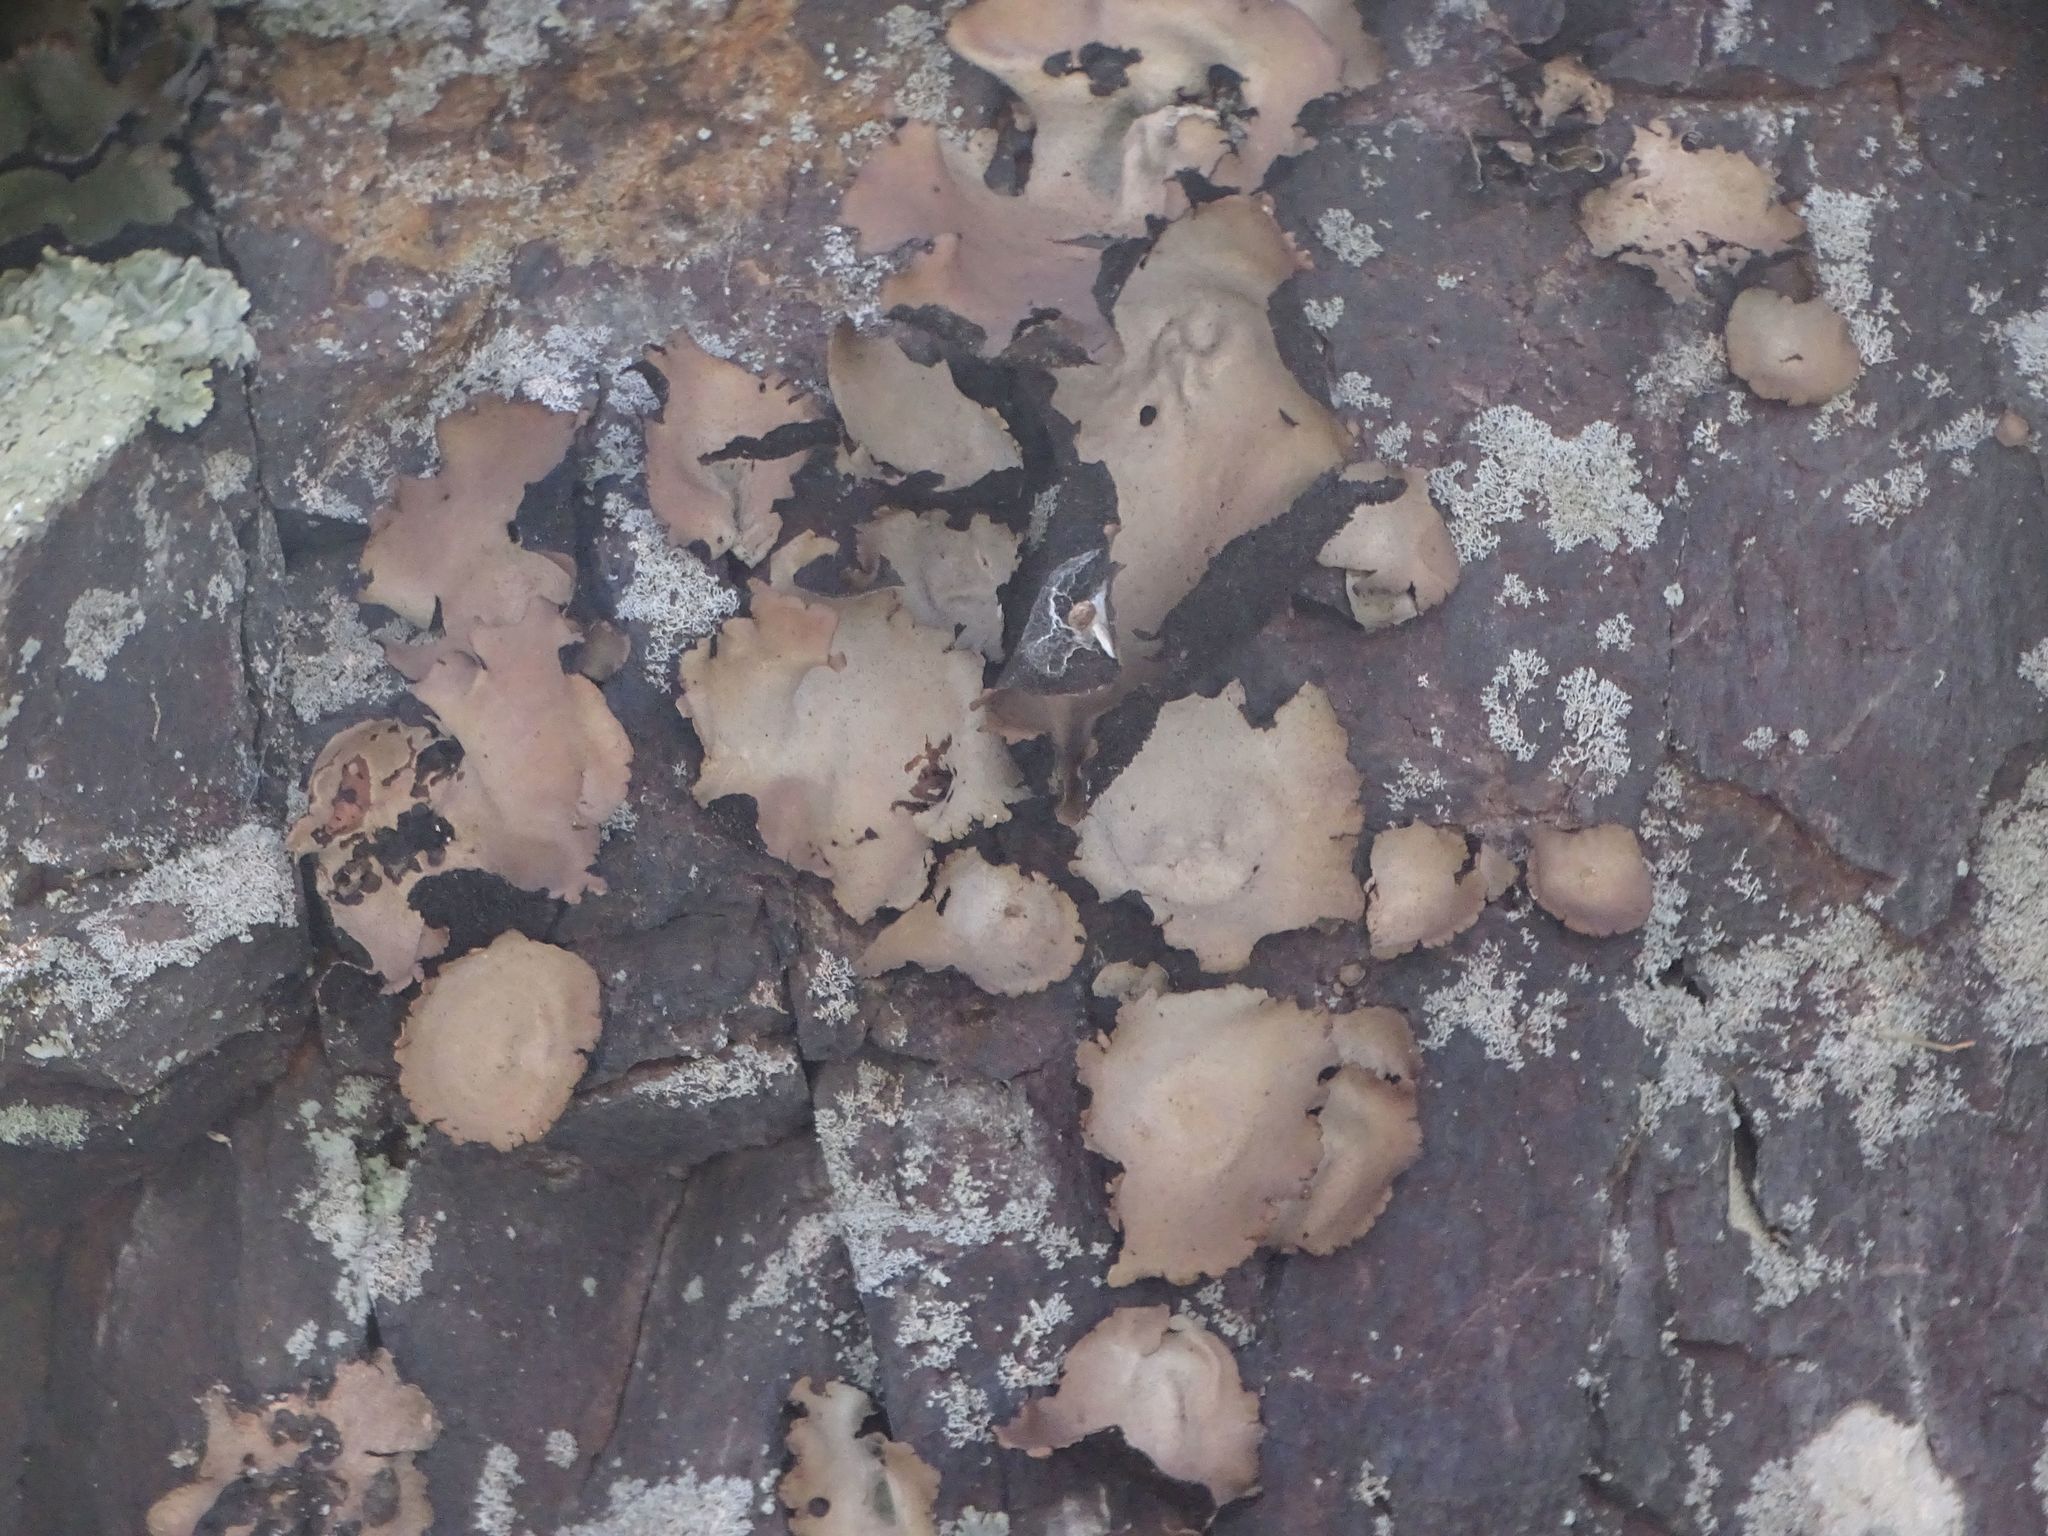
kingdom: Fungi
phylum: Ascomycota
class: Lecanoromycetes
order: Umbilicariales
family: Umbilicariaceae
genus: Umbilicaria
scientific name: Umbilicaria mammulata
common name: Smooth rock tripe
